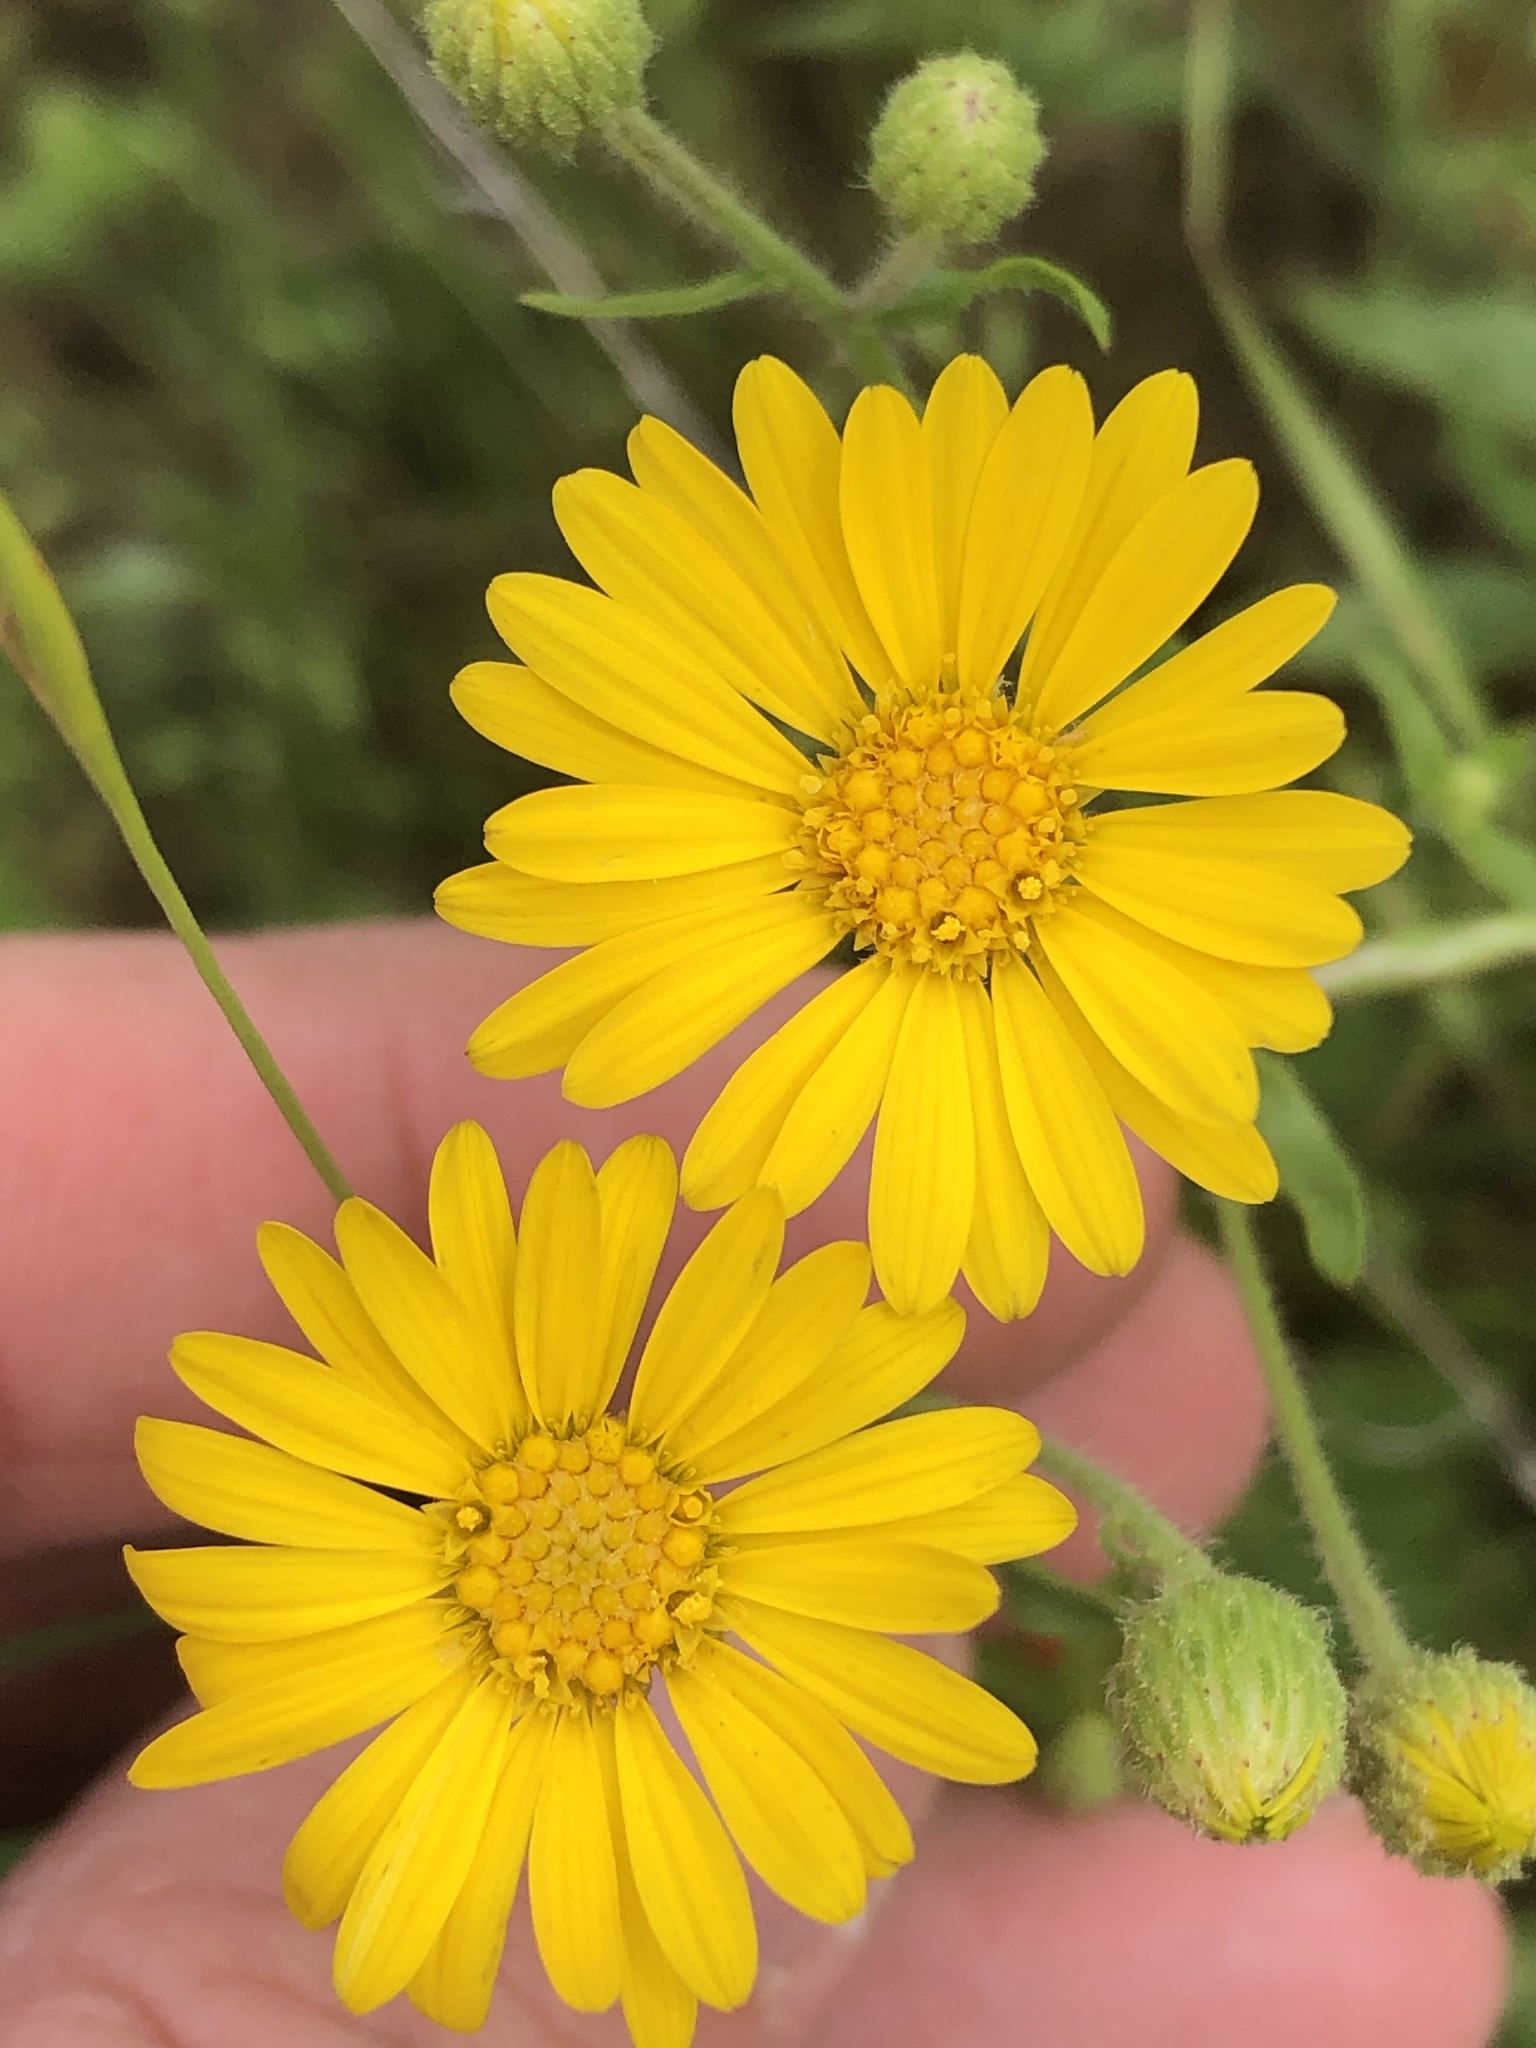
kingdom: Plantae
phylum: Tracheophyta
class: Magnoliopsida
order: Asterales
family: Asteraceae
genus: Heterotheca
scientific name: Heterotheca subaxillaris
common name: Camphorweed
